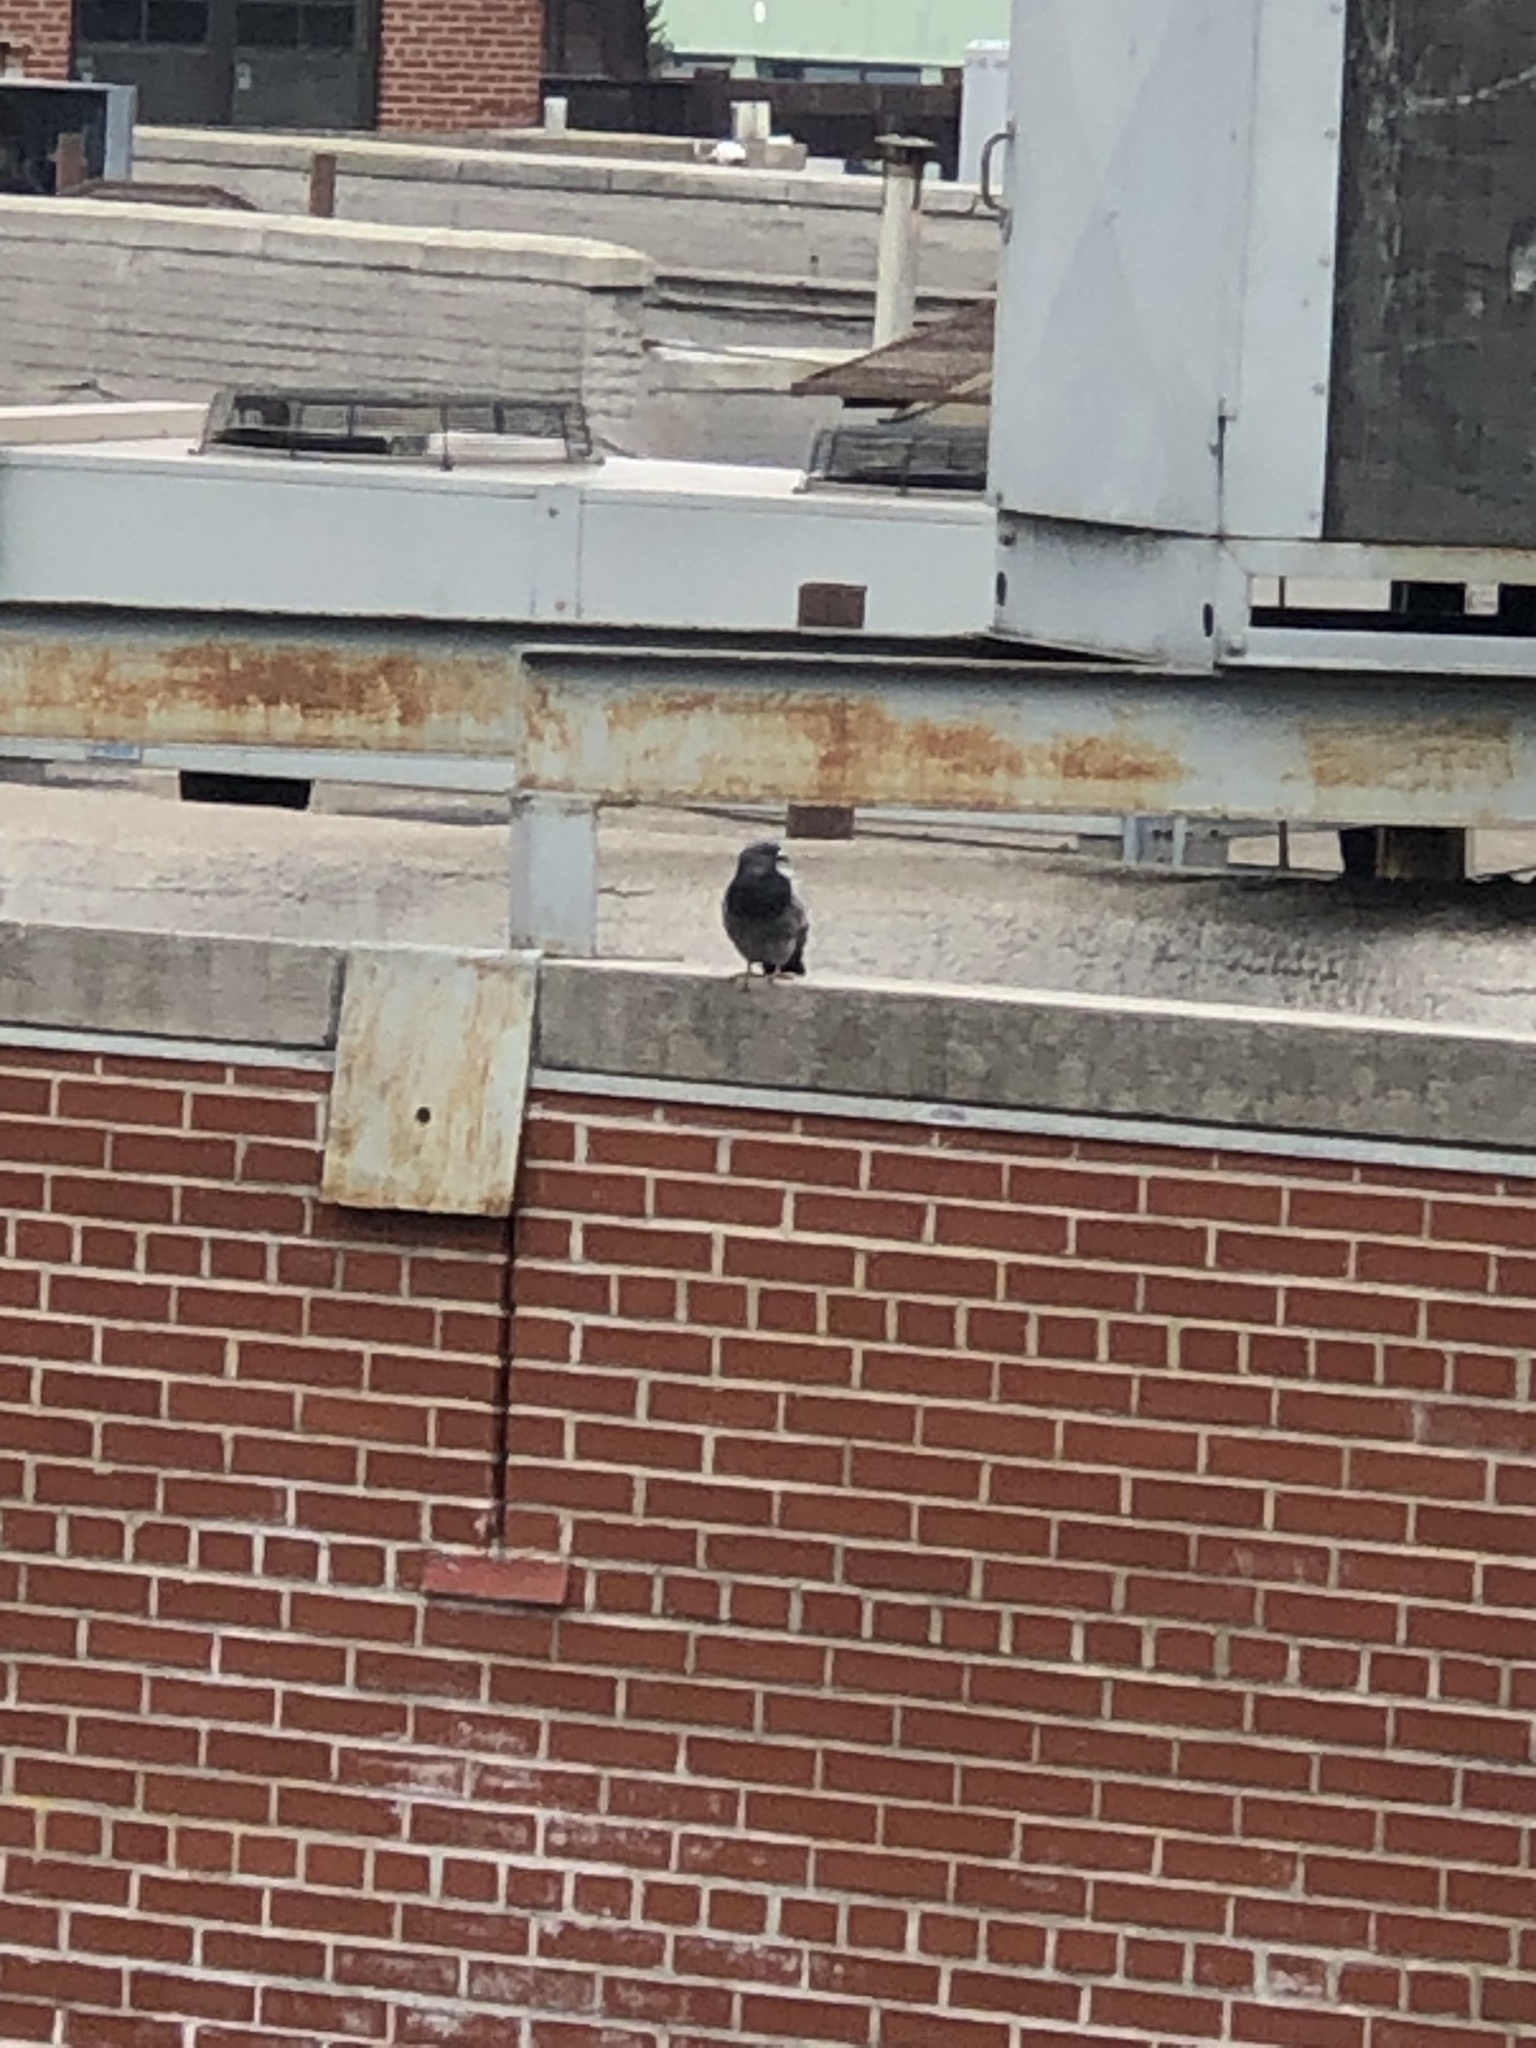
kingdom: Animalia
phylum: Chordata
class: Aves
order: Columbiformes
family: Columbidae
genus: Columba
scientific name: Columba livia
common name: Rock pigeon
